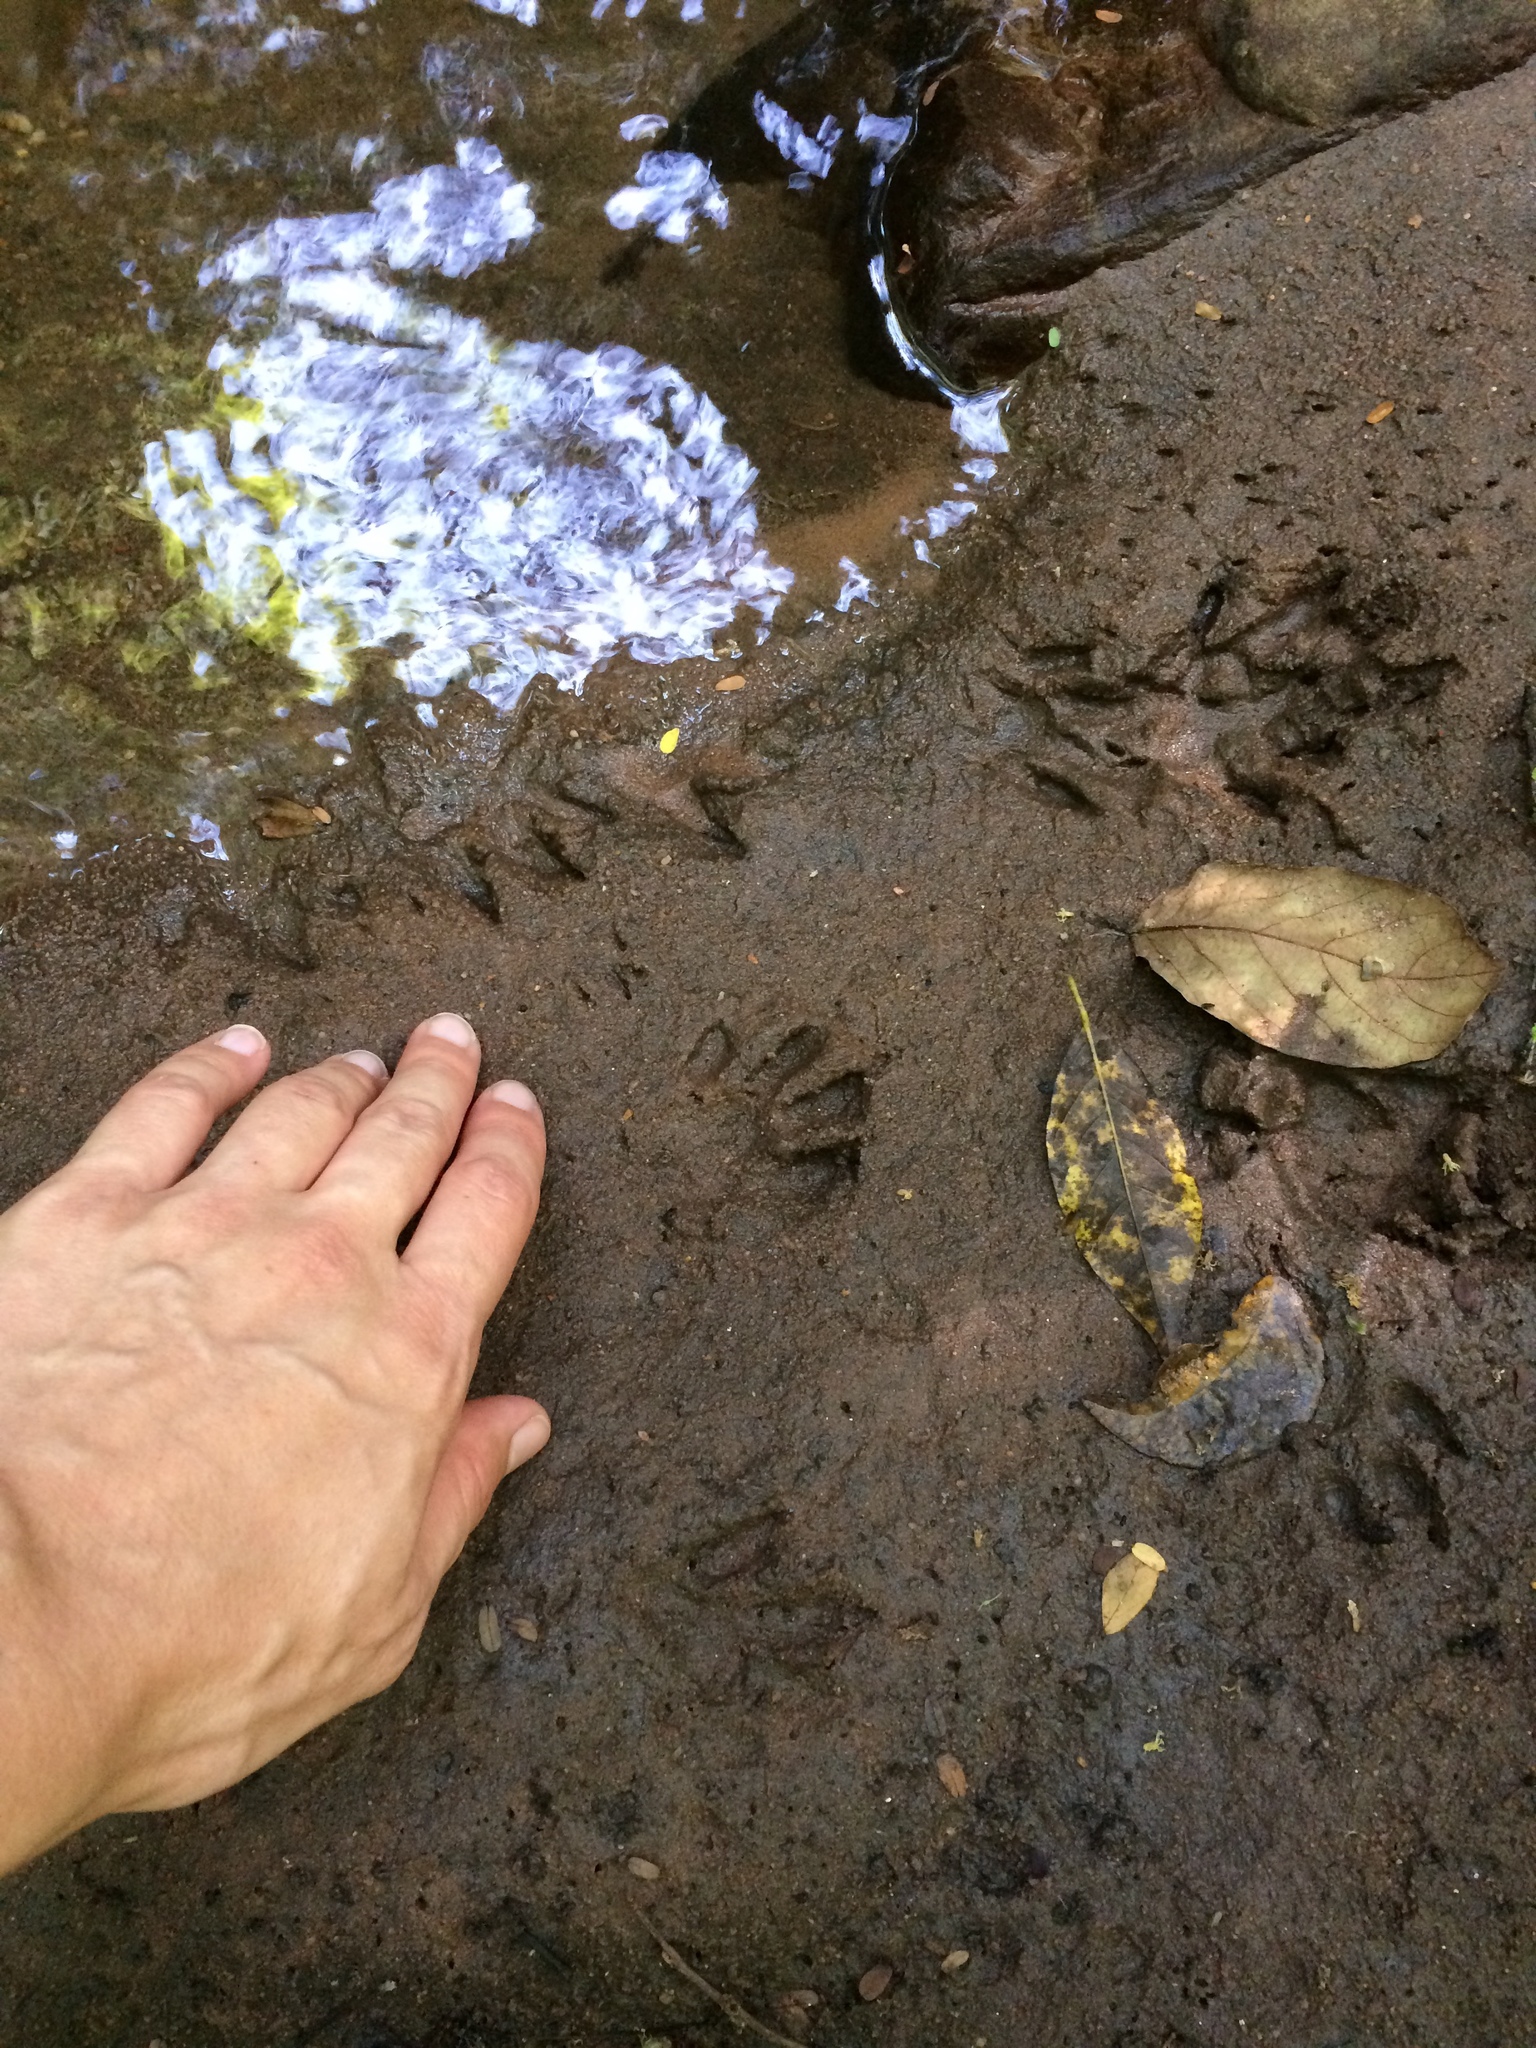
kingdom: Animalia
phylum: Chordata
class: Mammalia
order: Carnivora
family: Mustelidae
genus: Hydrictis
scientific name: Hydrictis maculicollis
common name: Spotted-necked otter
